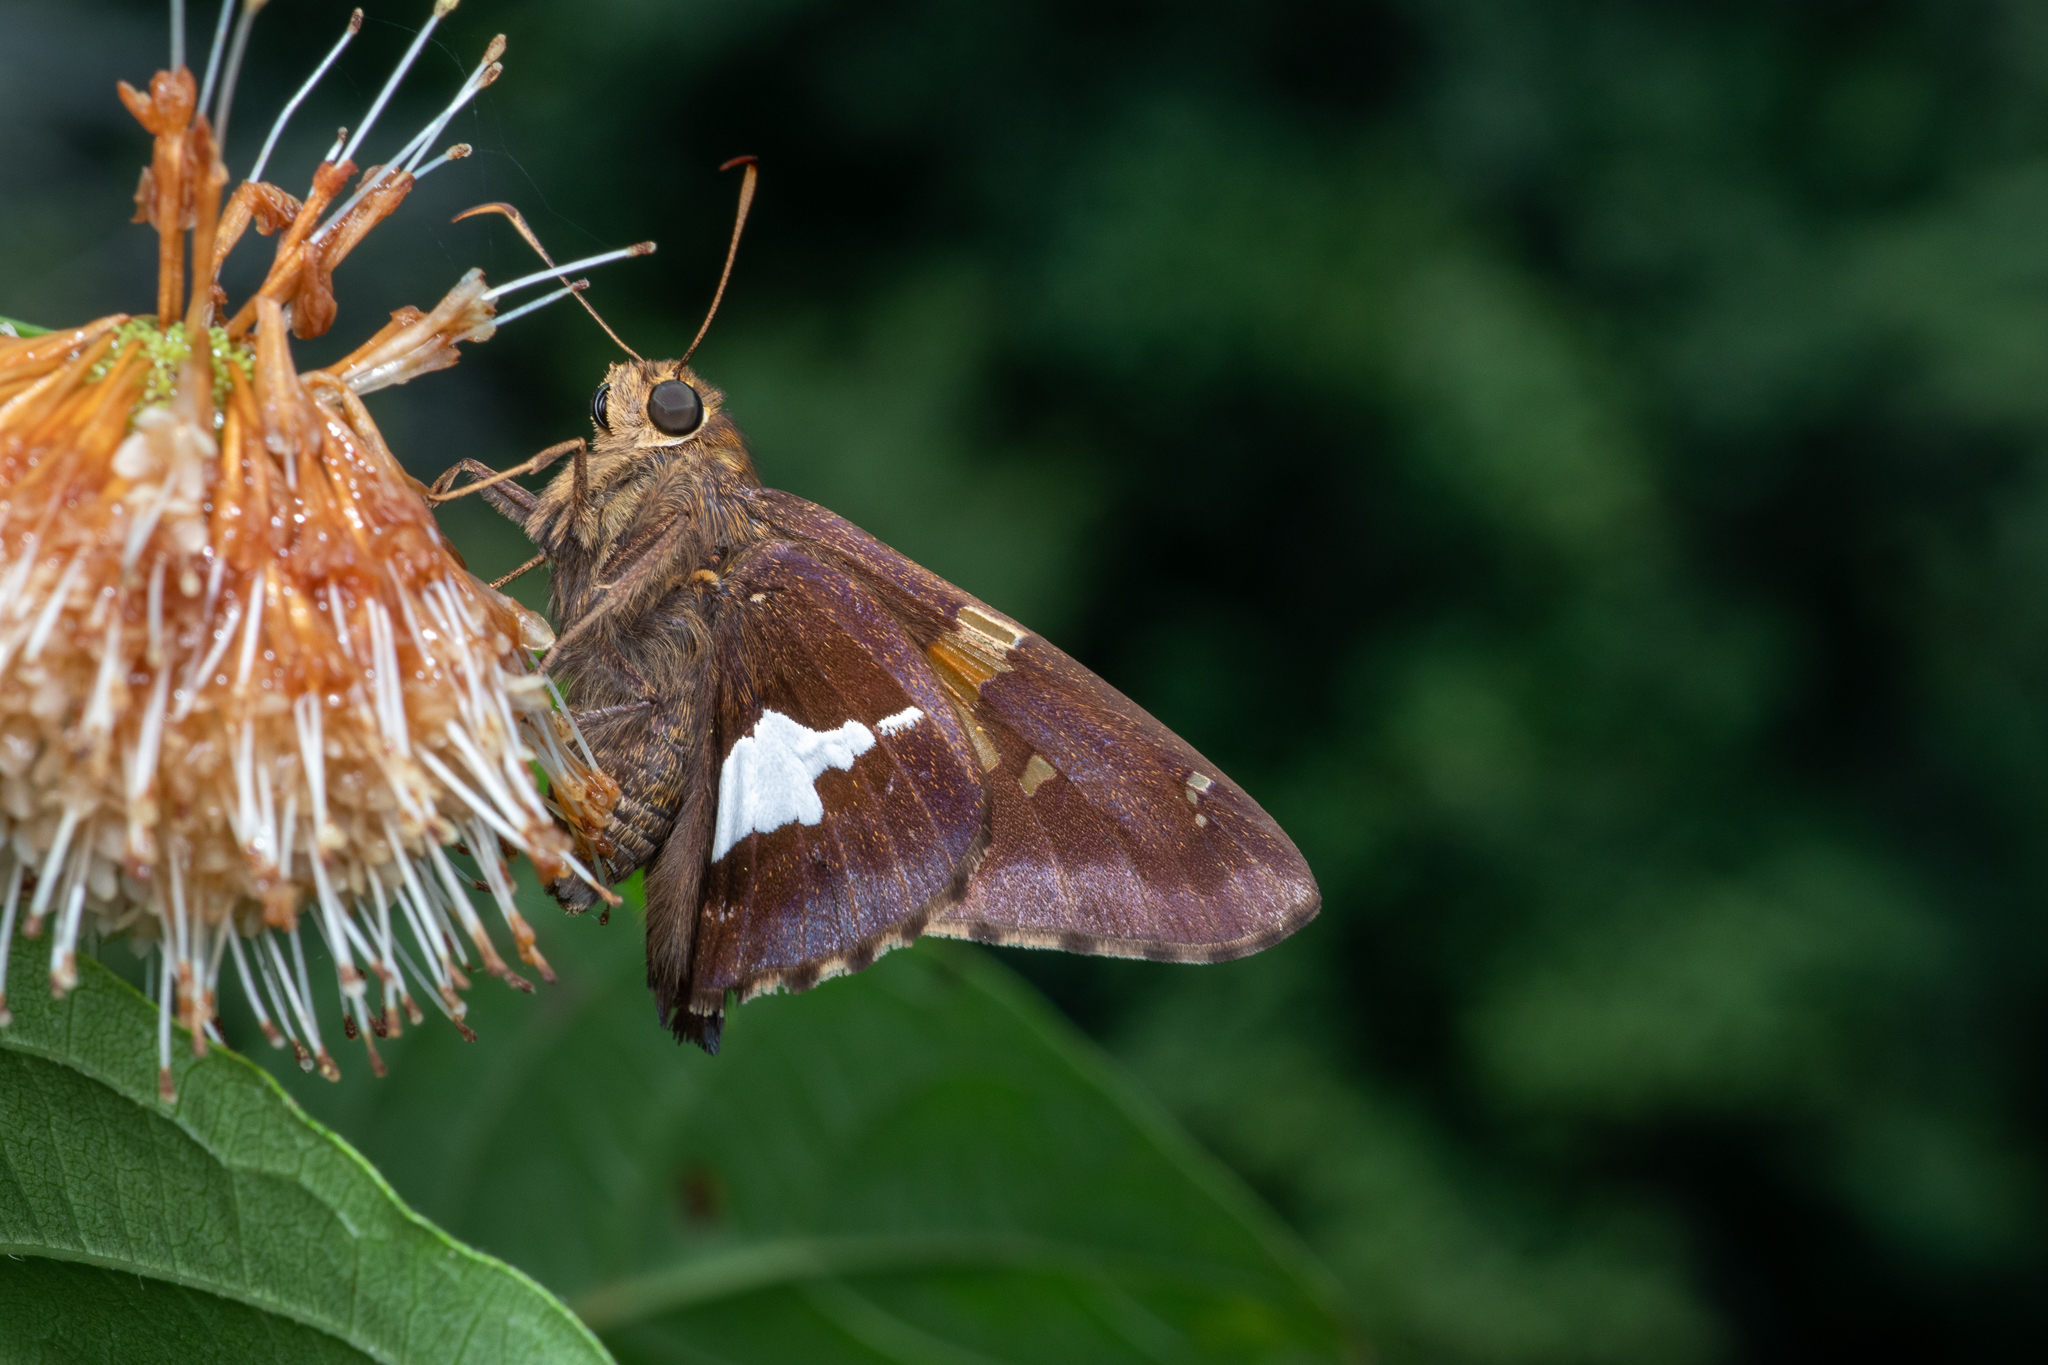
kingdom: Animalia
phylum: Arthropoda
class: Insecta
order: Lepidoptera
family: Hesperiidae
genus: Epargyreus
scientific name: Epargyreus clarus
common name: Silver-spotted skipper
